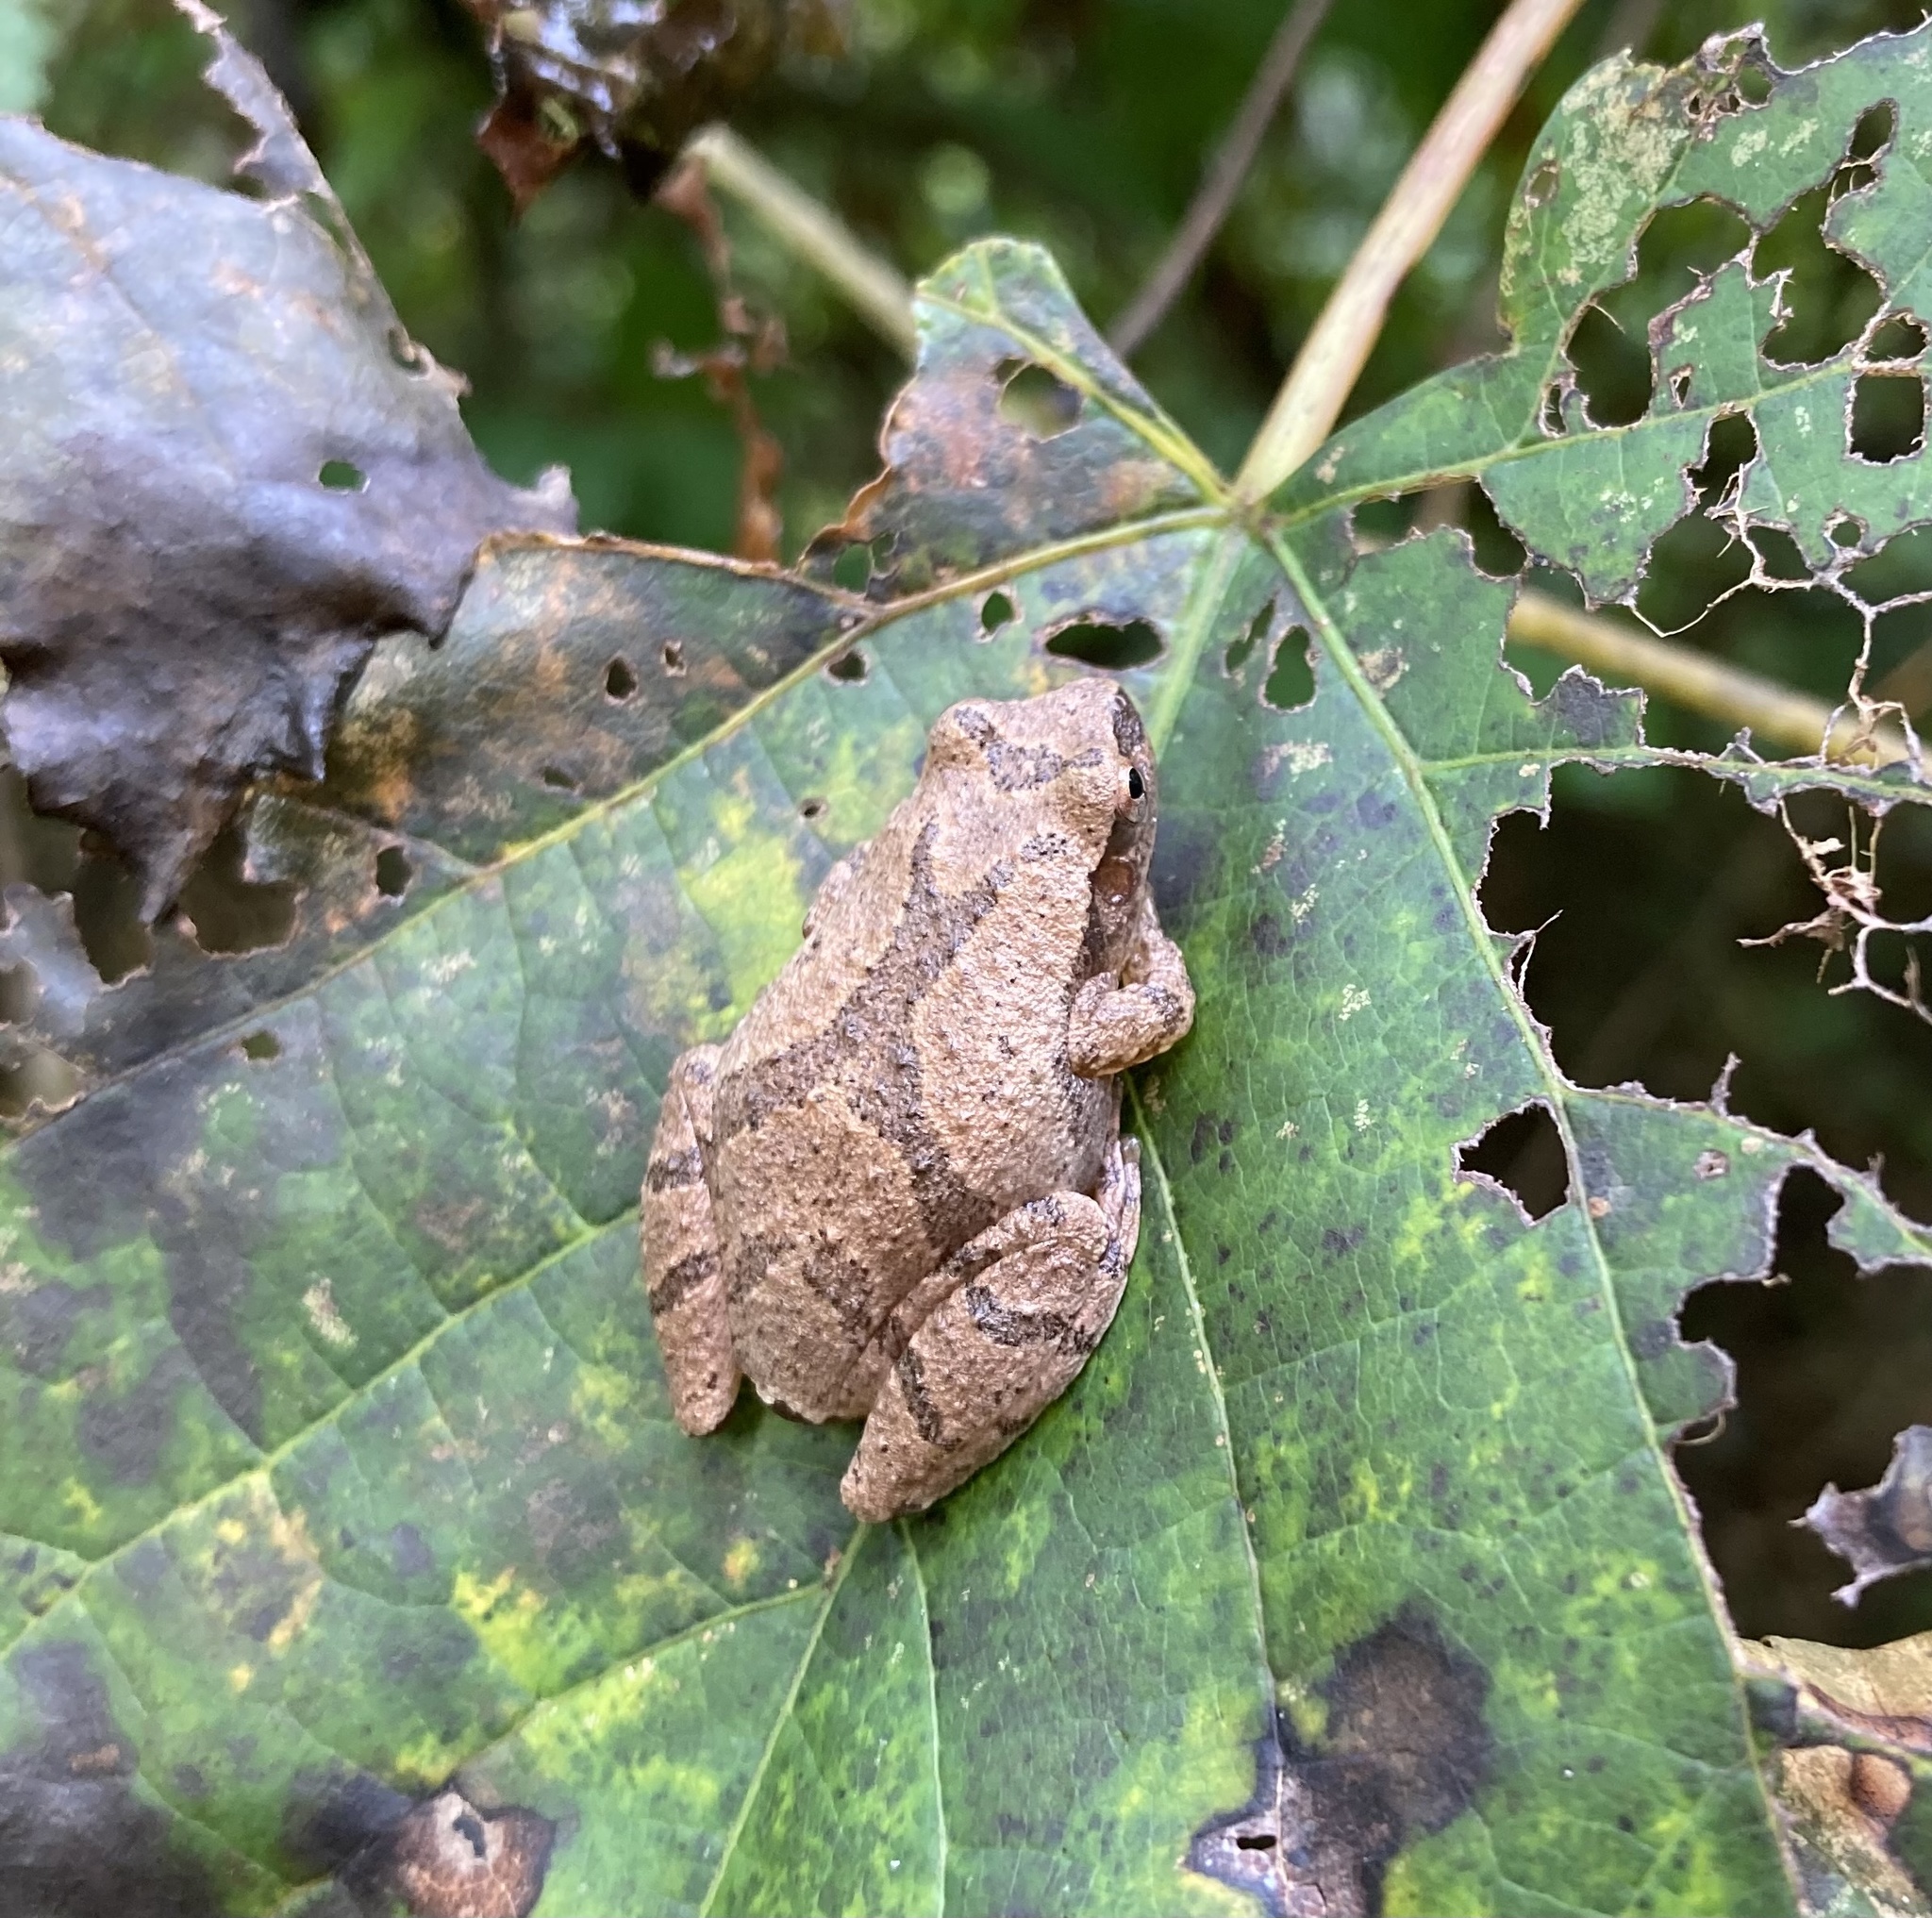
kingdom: Animalia
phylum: Chordata
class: Amphibia
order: Anura
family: Hylidae
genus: Pseudacris
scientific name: Pseudacris crucifer
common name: Spring peeper
